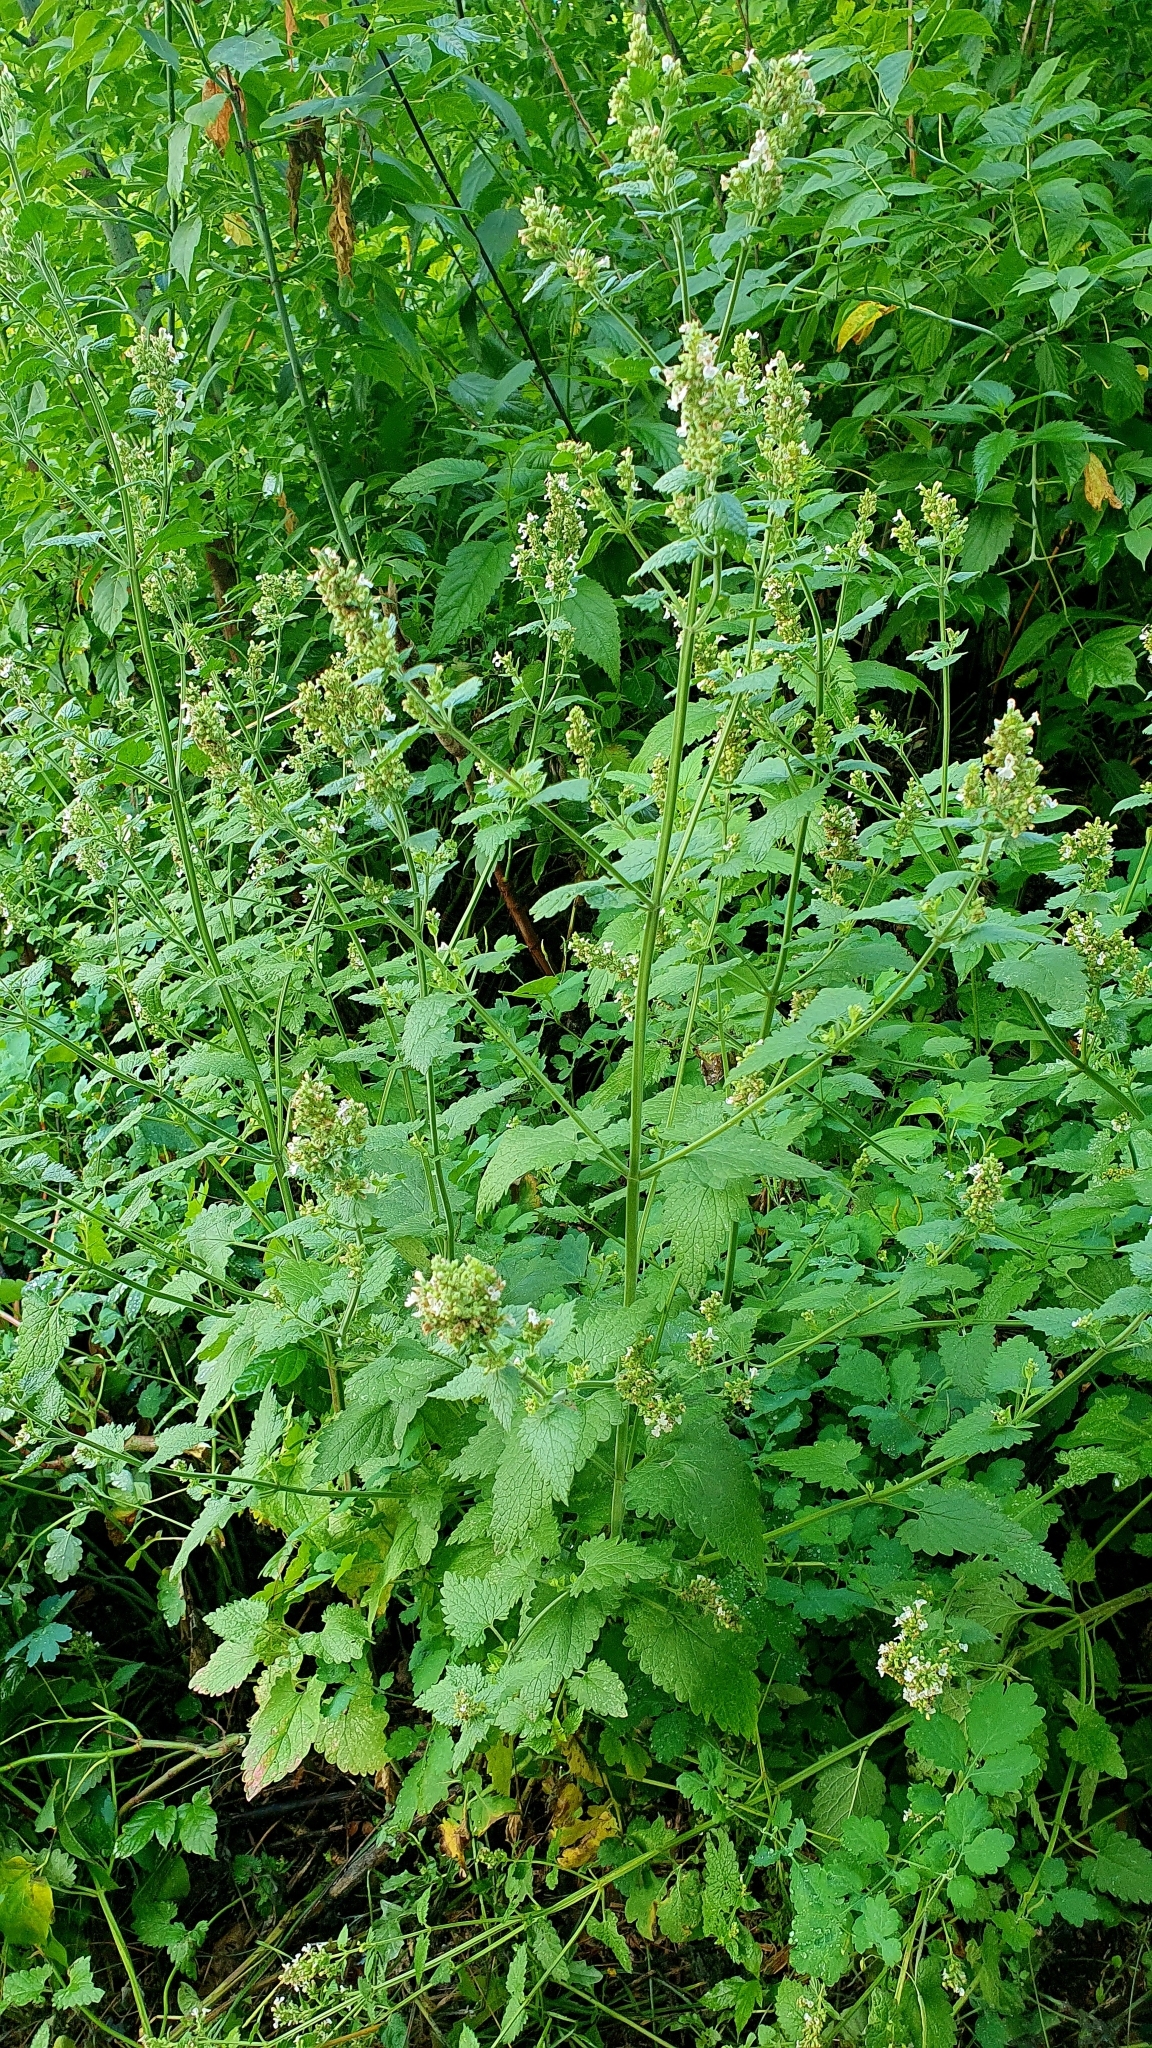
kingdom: Plantae
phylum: Tracheophyta
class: Magnoliopsida
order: Lamiales
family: Lamiaceae
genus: Nepeta
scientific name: Nepeta cataria
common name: Catnip
